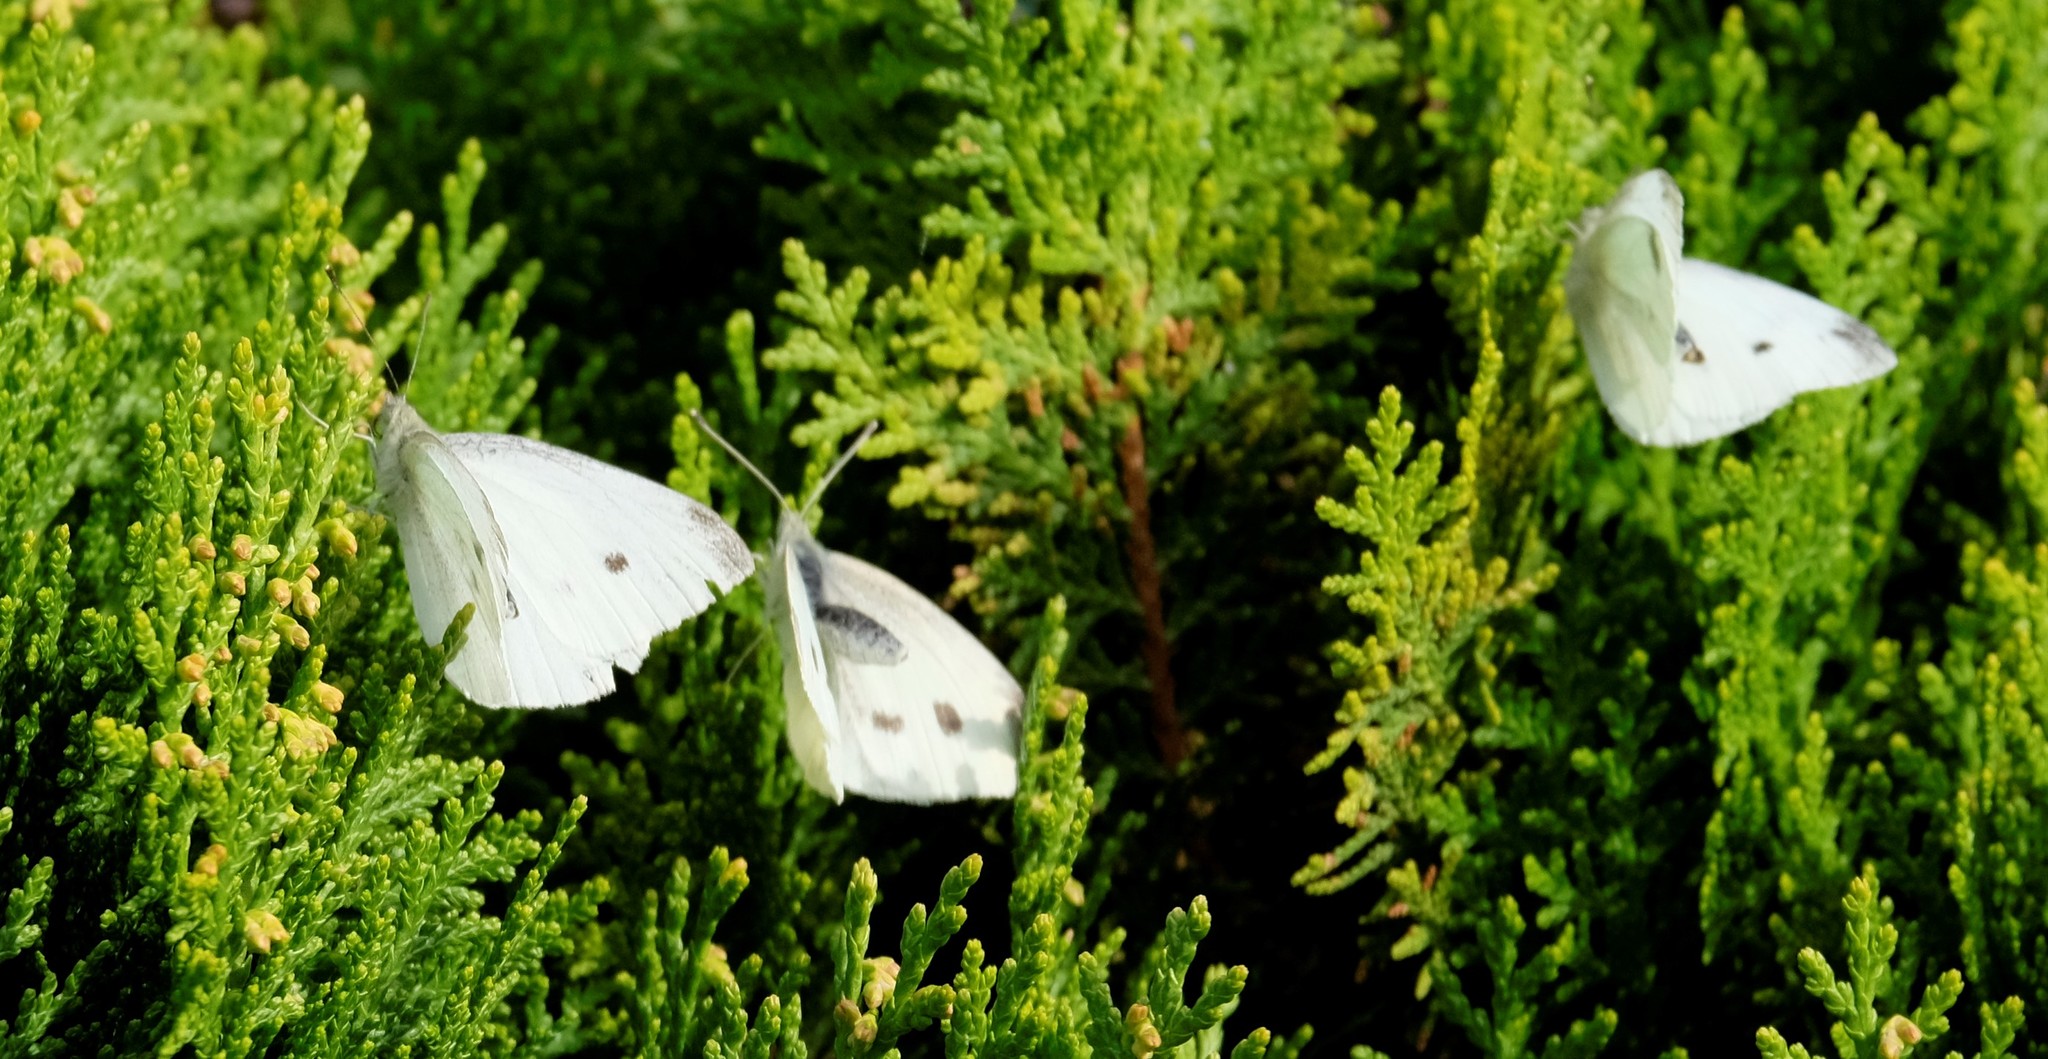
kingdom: Animalia
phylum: Arthropoda
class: Insecta
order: Lepidoptera
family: Pieridae
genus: Pieris
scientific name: Pieris rapae
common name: Small white
